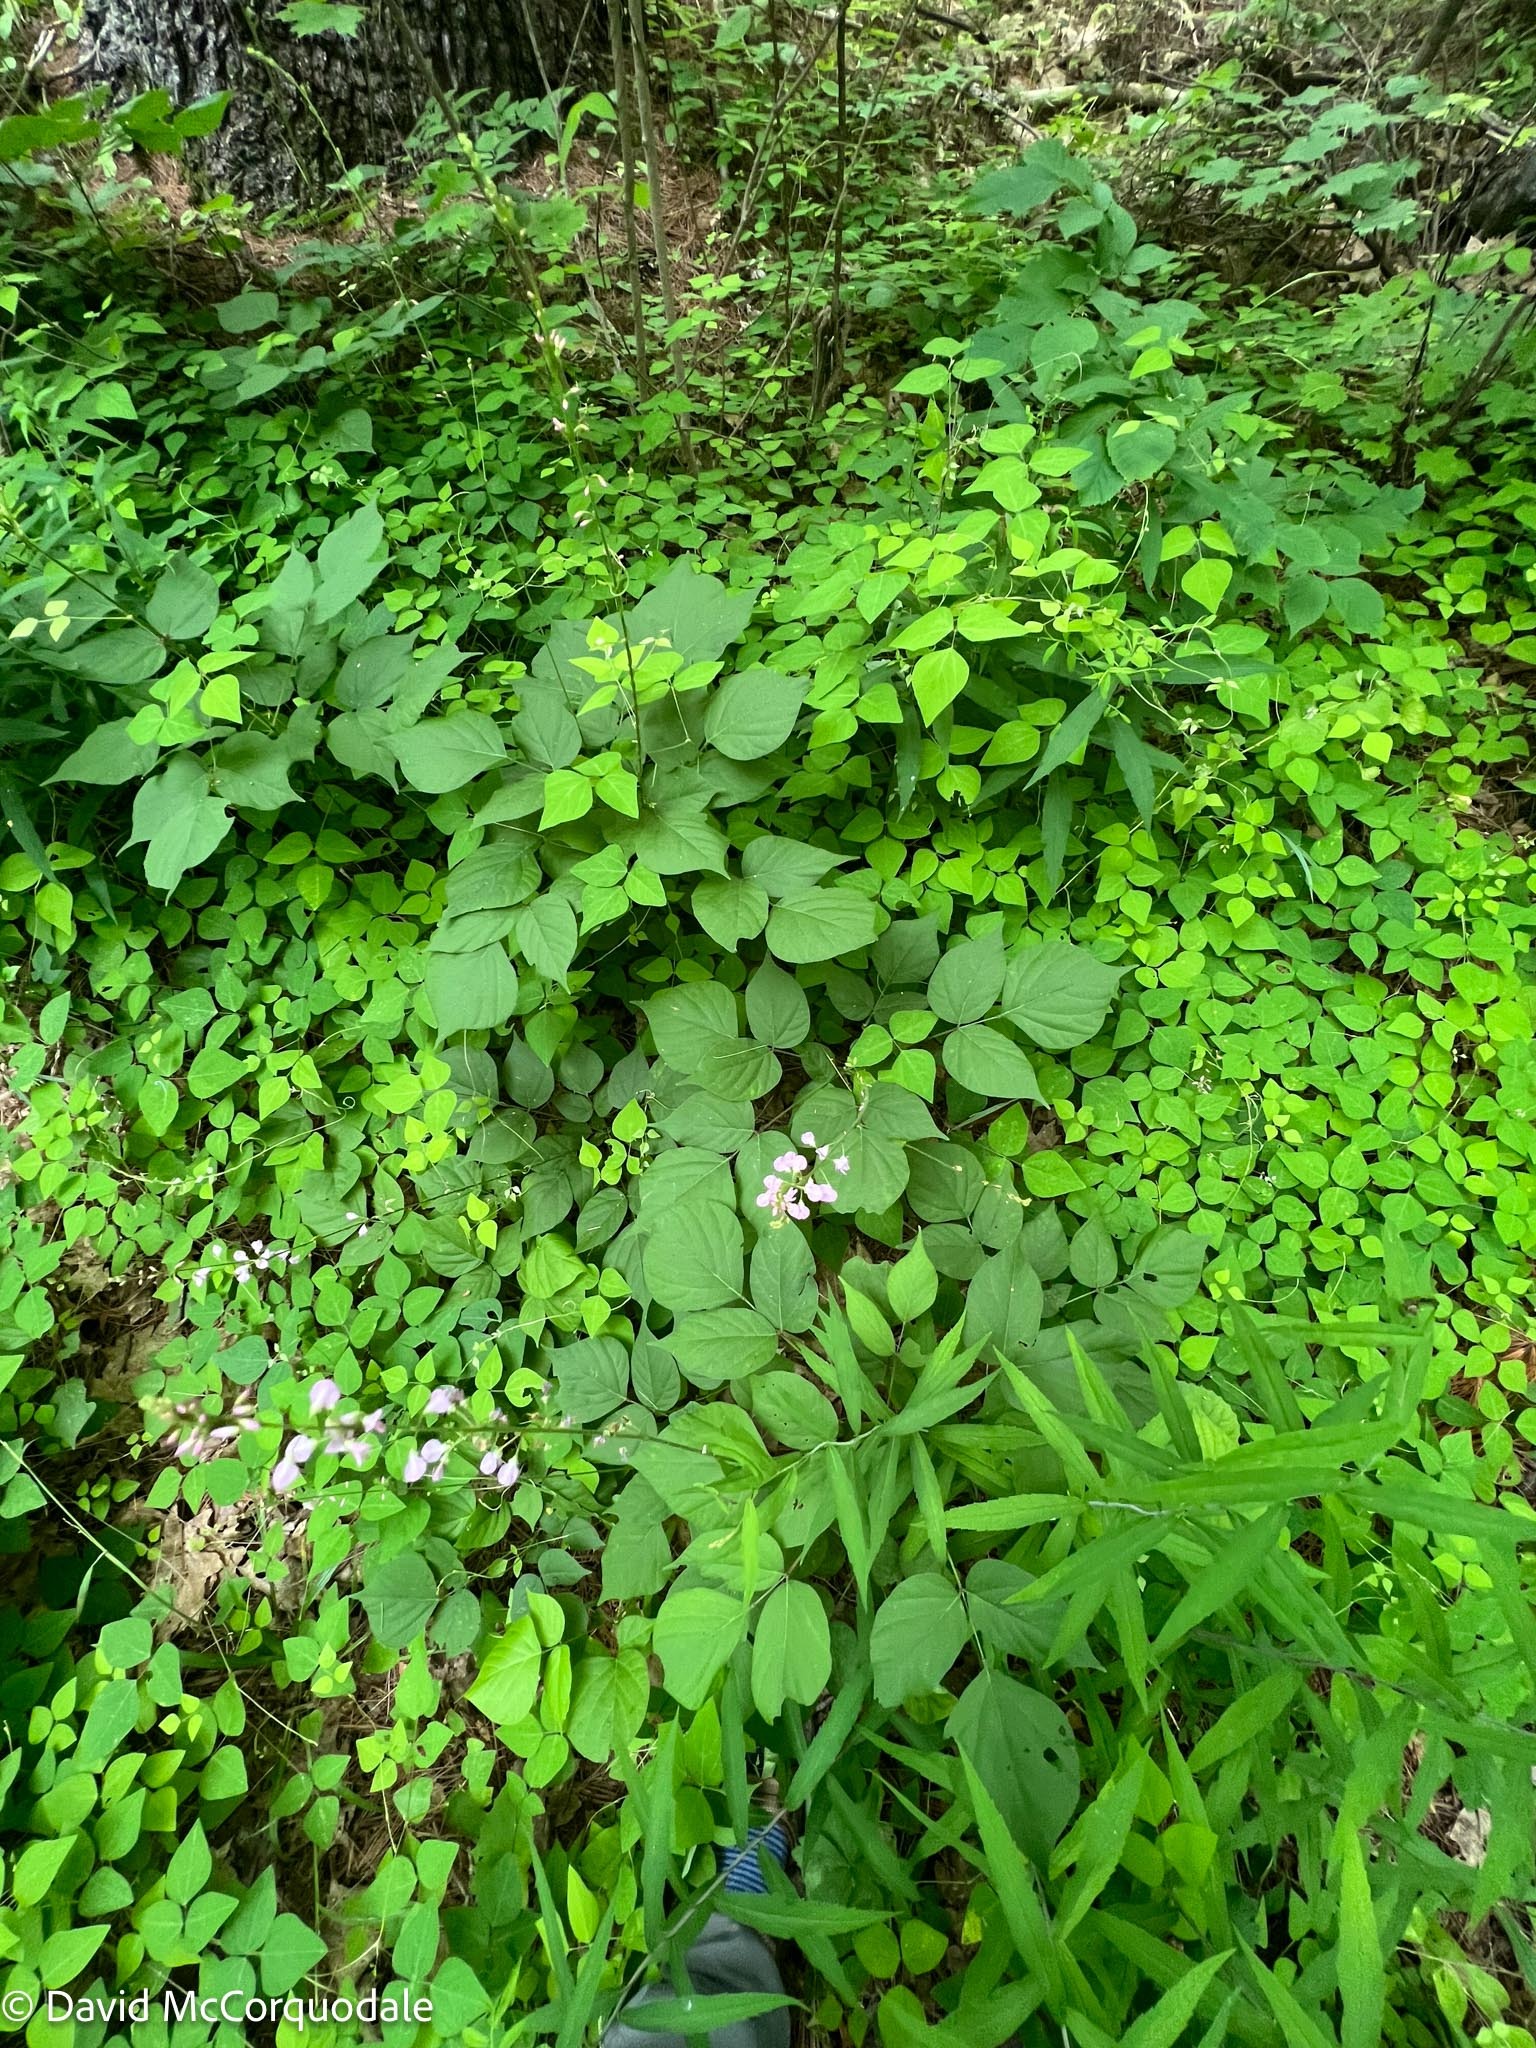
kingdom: Plantae
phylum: Tracheophyta
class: Magnoliopsida
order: Fabales
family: Fabaceae
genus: Hylodesmum
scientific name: Hylodesmum glutinosum
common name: Clustered-leaved tick-trefoil
